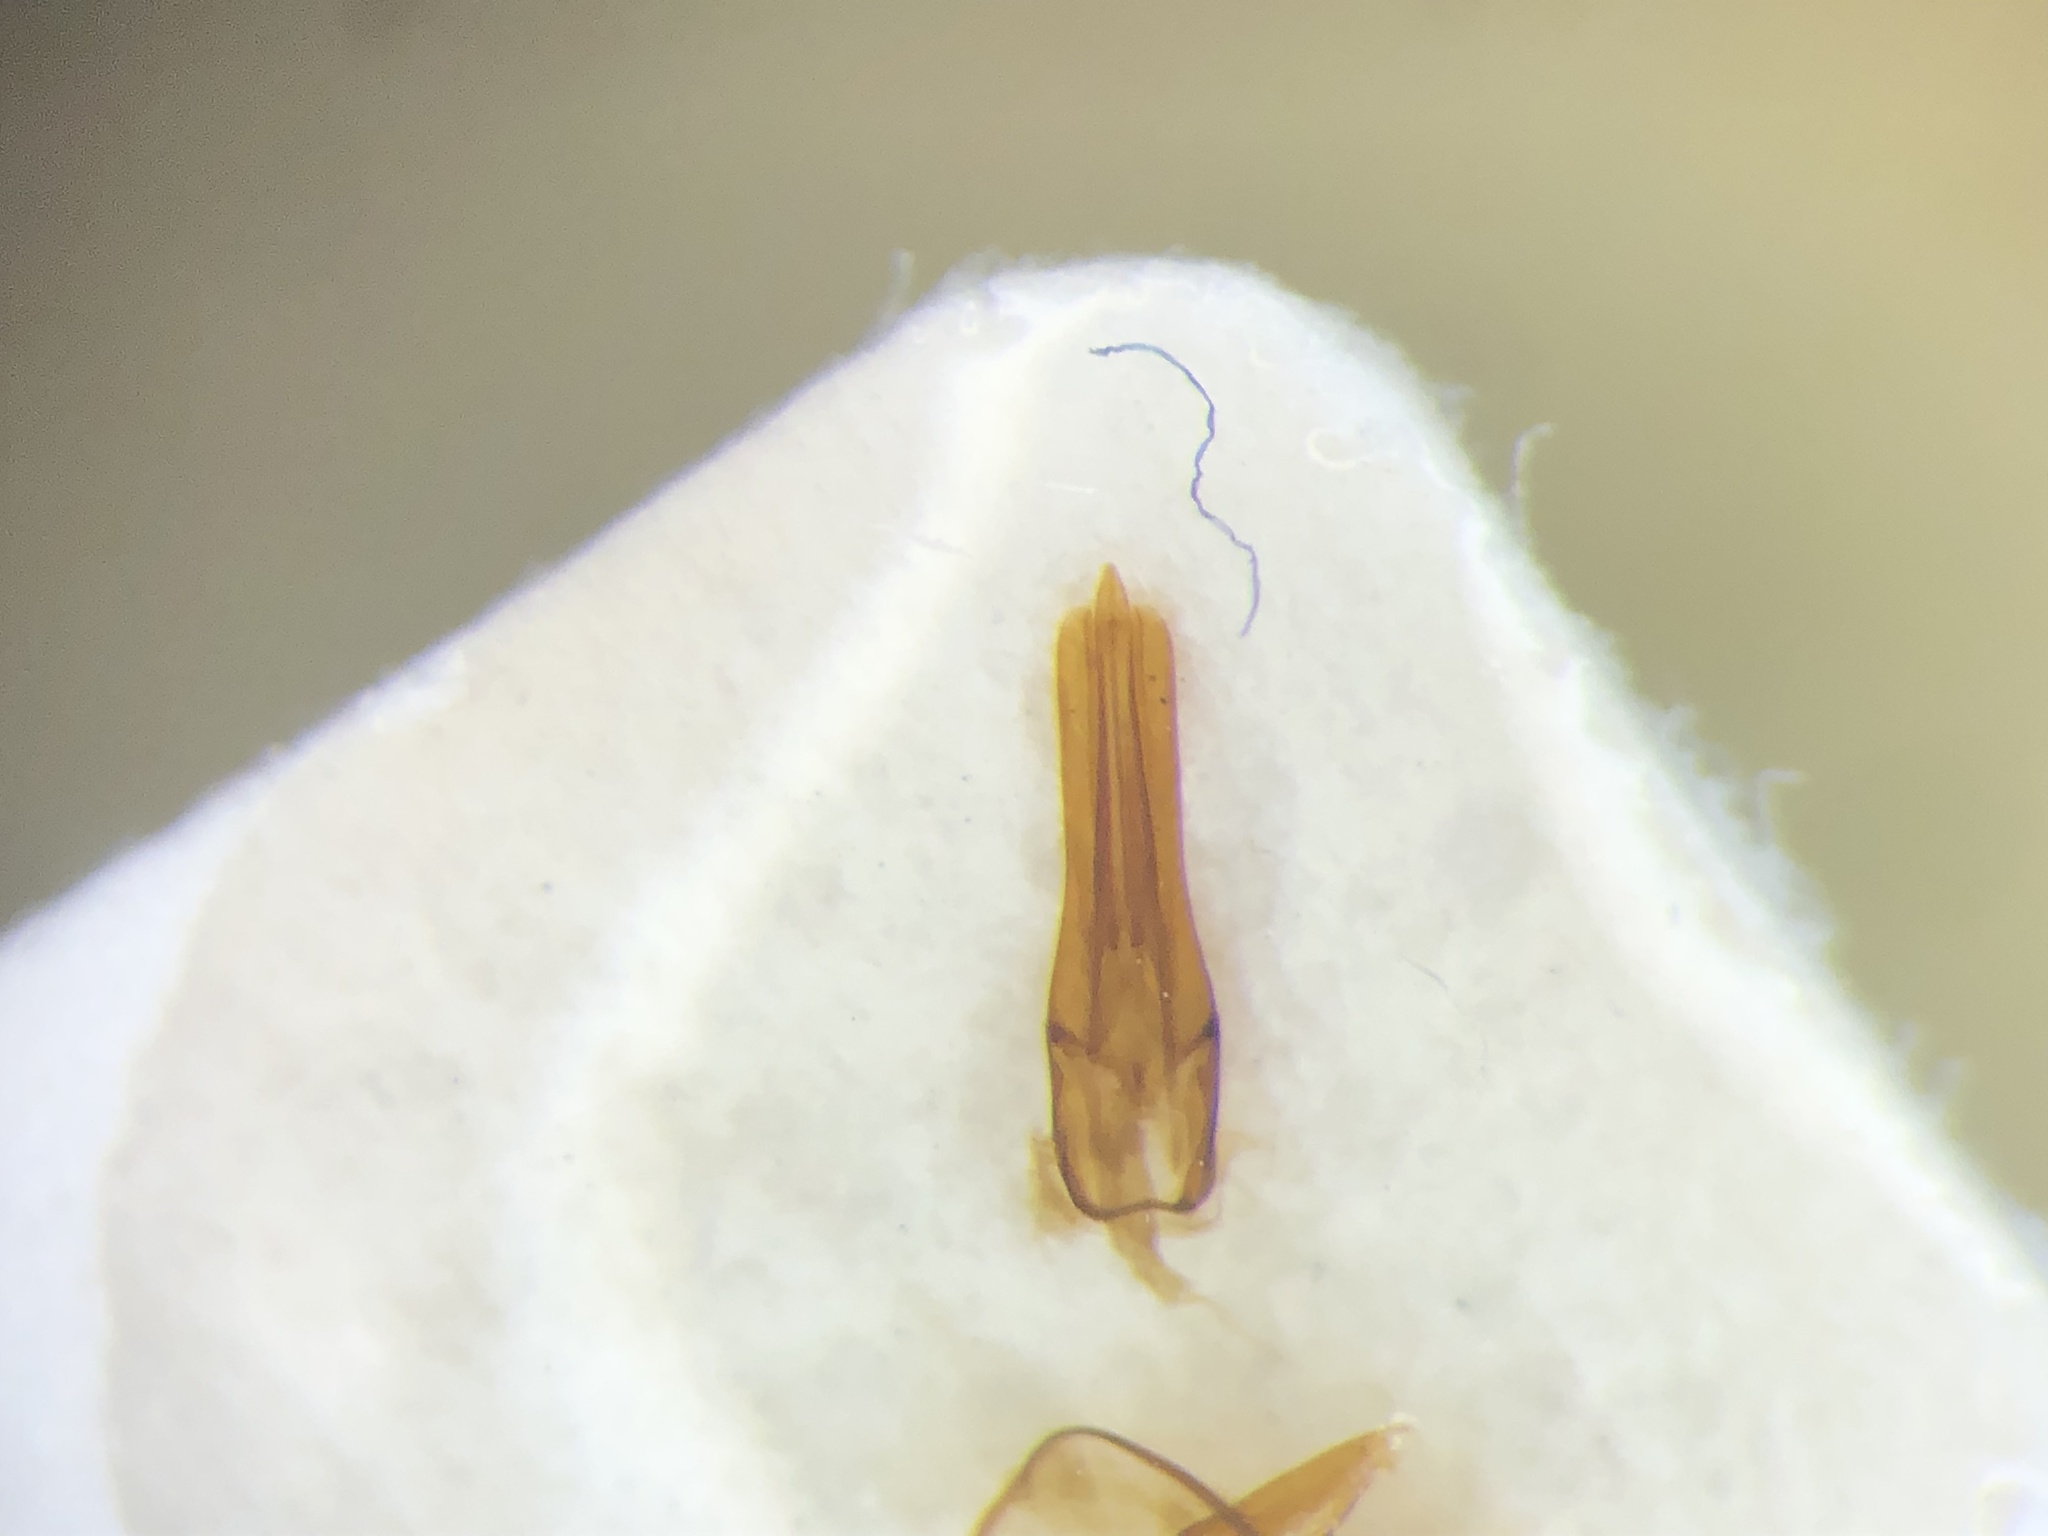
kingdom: Animalia
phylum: Arthropoda
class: Insecta
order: Coleoptera
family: Elateridae
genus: Melanotus
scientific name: Melanotus hyslopi
